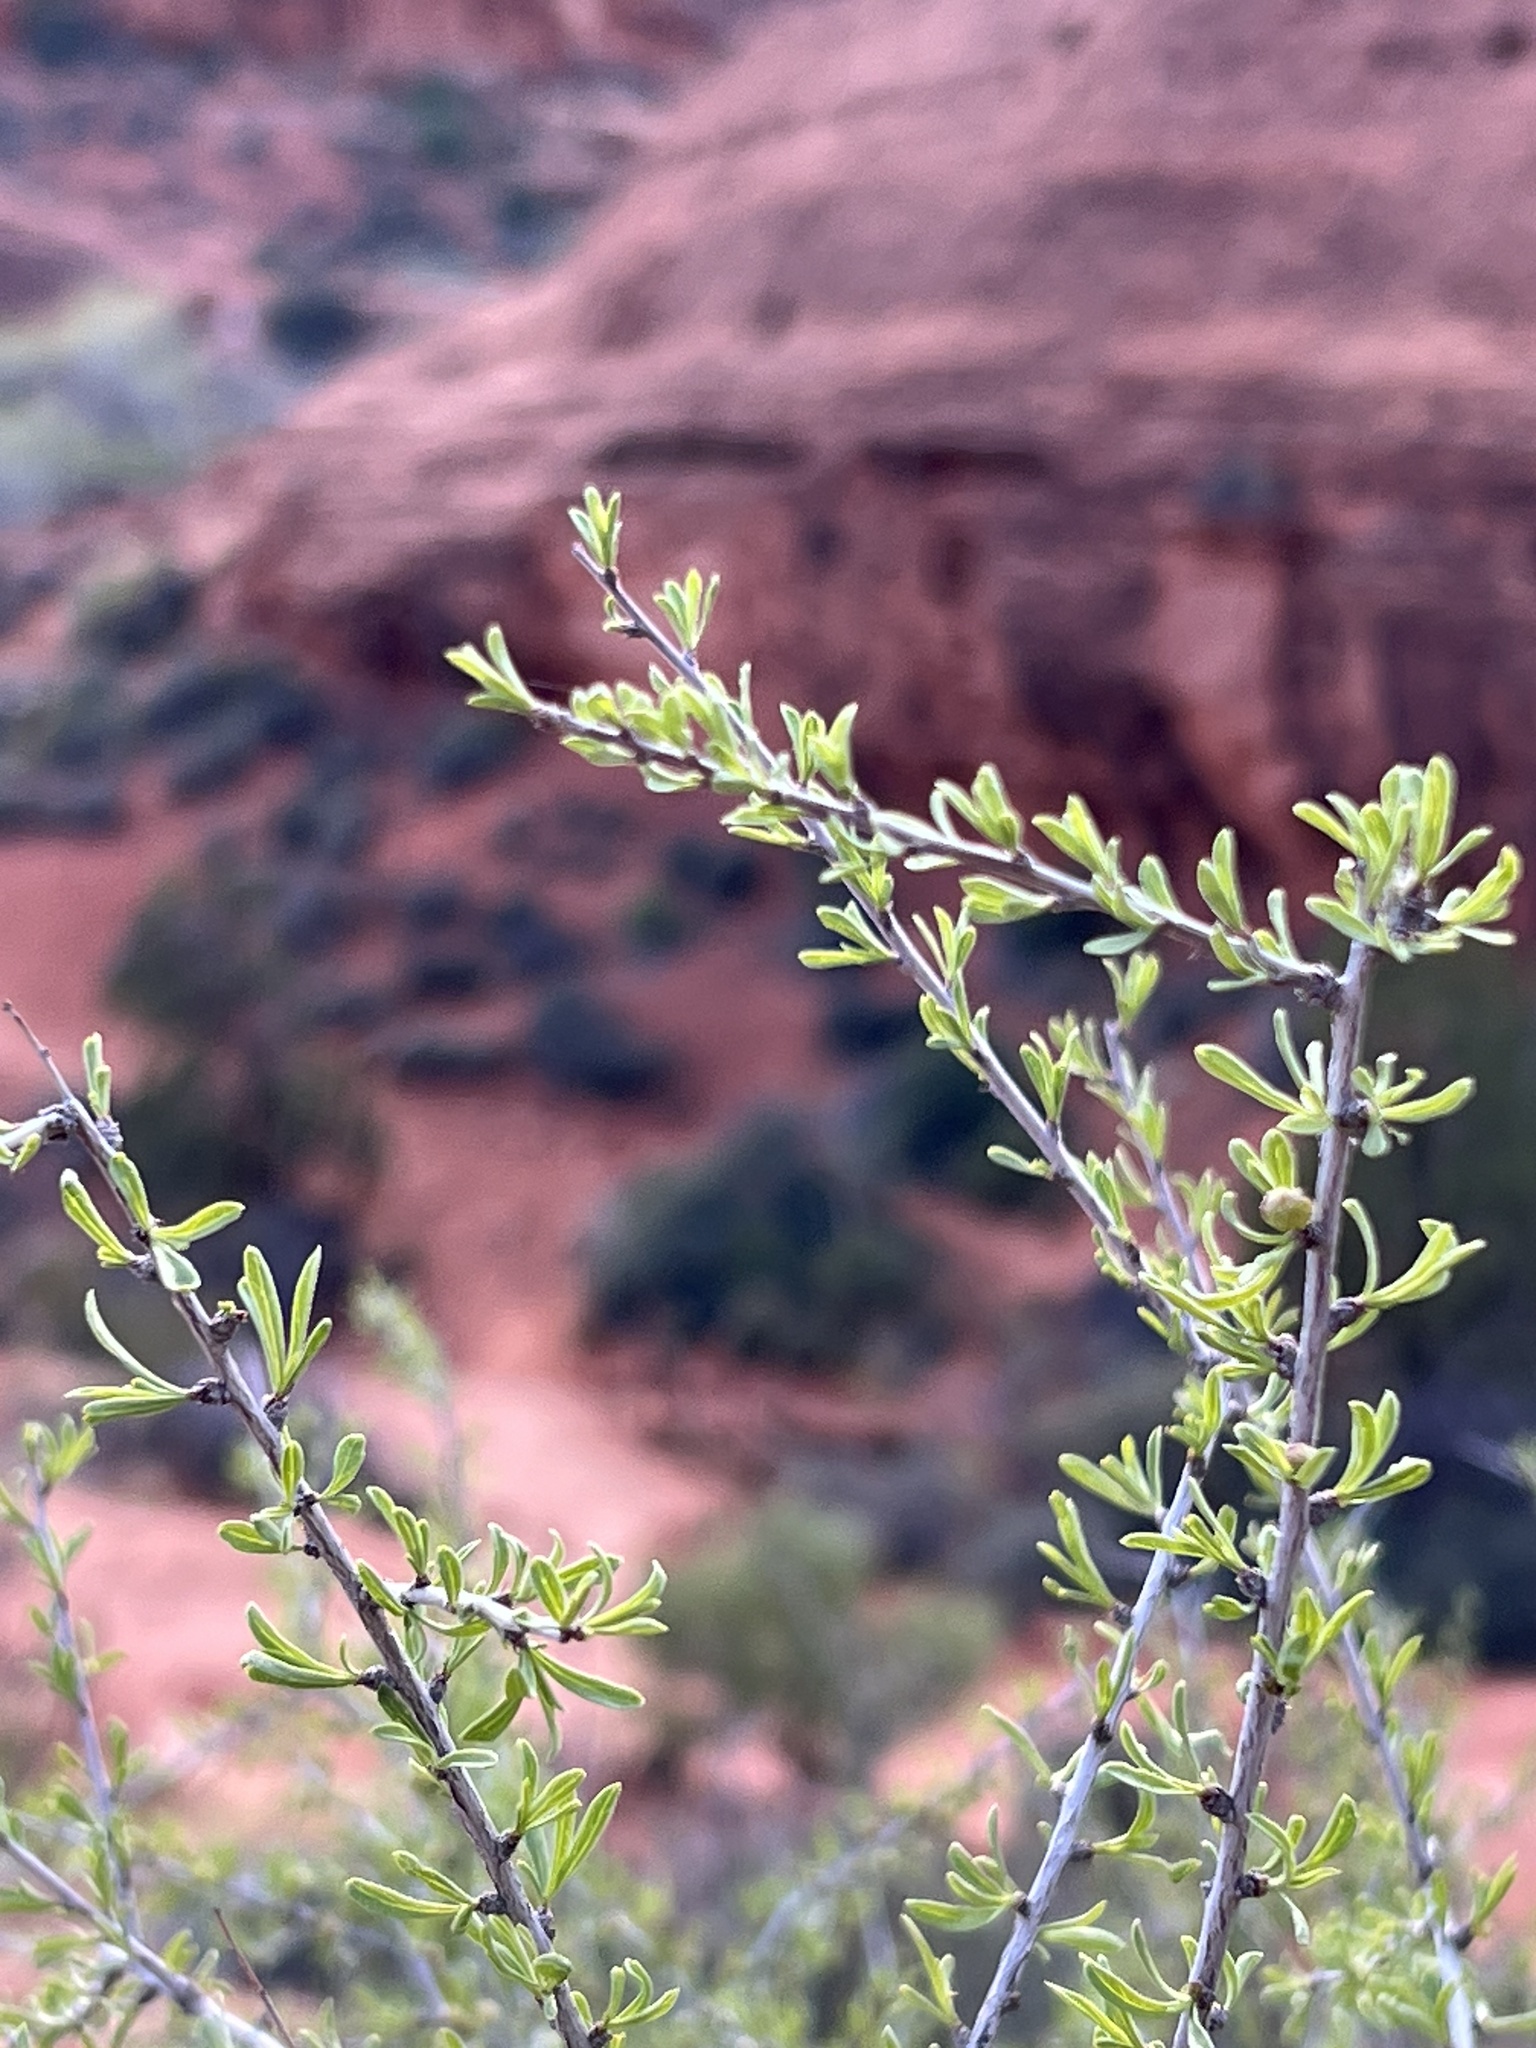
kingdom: Plantae
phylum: Tracheophyta
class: Magnoliopsida
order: Rosales
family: Rosaceae
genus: Prunus
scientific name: Prunus fasciculata
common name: Desert almond
